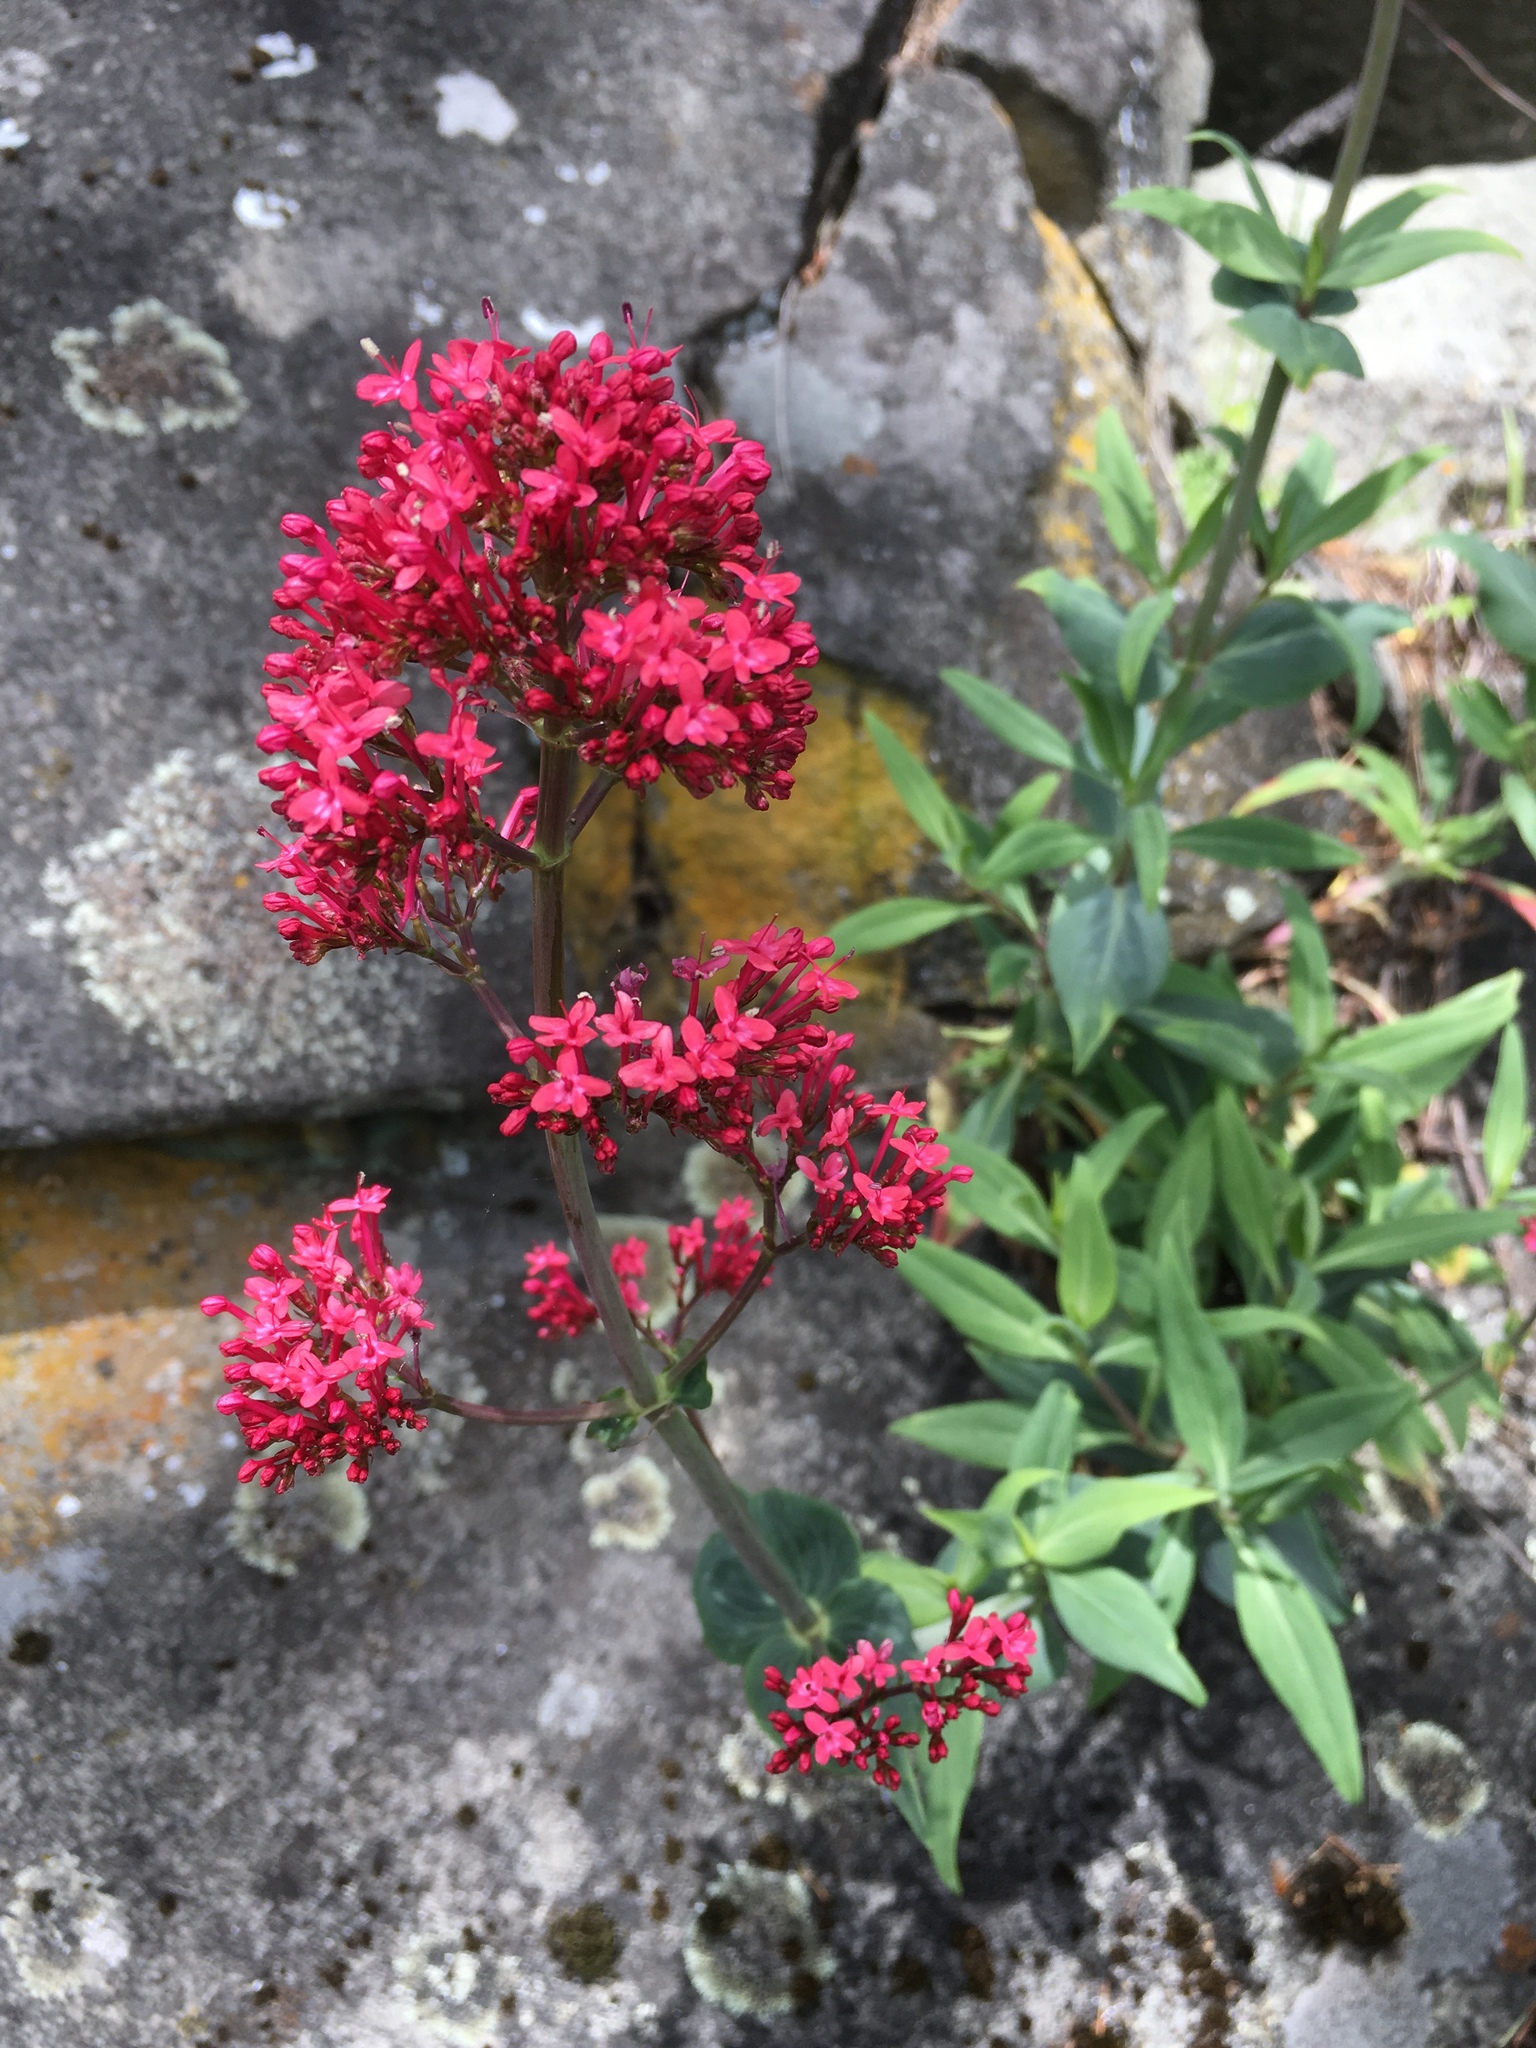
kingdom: Plantae
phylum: Tracheophyta
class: Magnoliopsida
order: Dipsacales
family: Caprifoliaceae
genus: Centranthus
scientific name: Centranthus ruber
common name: Red valerian
